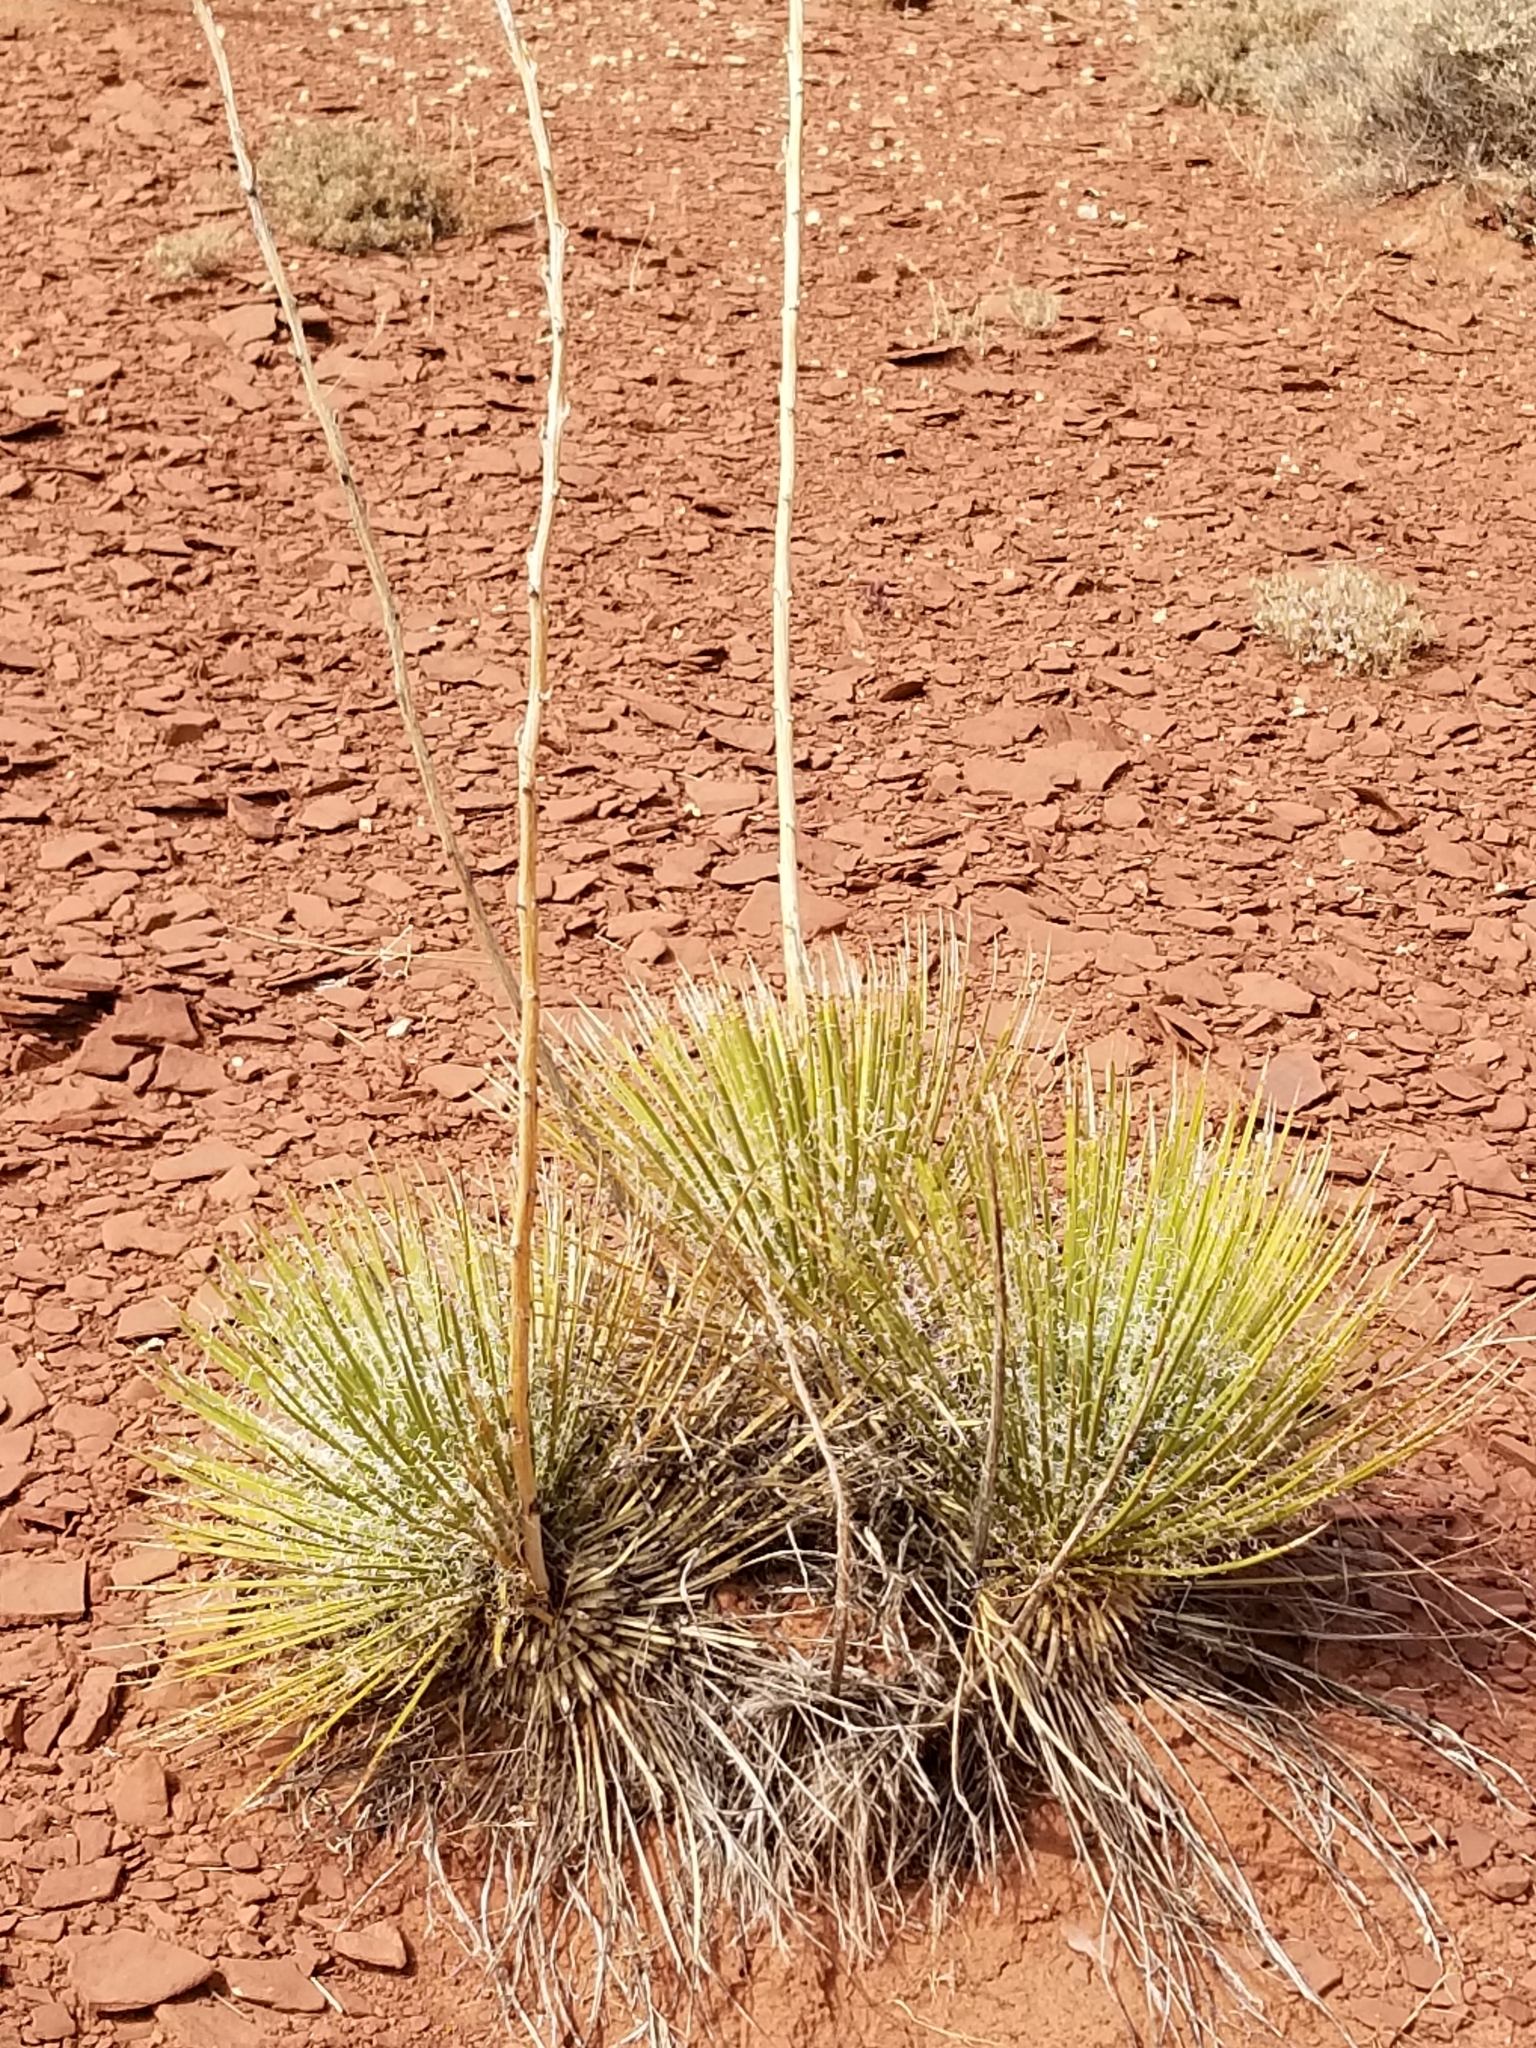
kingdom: Plantae
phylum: Tracheophyta
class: Liliopsida
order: Asparagales
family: Asparagaceae
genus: Yucca
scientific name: Yucca angustissima
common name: Narrowleaf yucca
